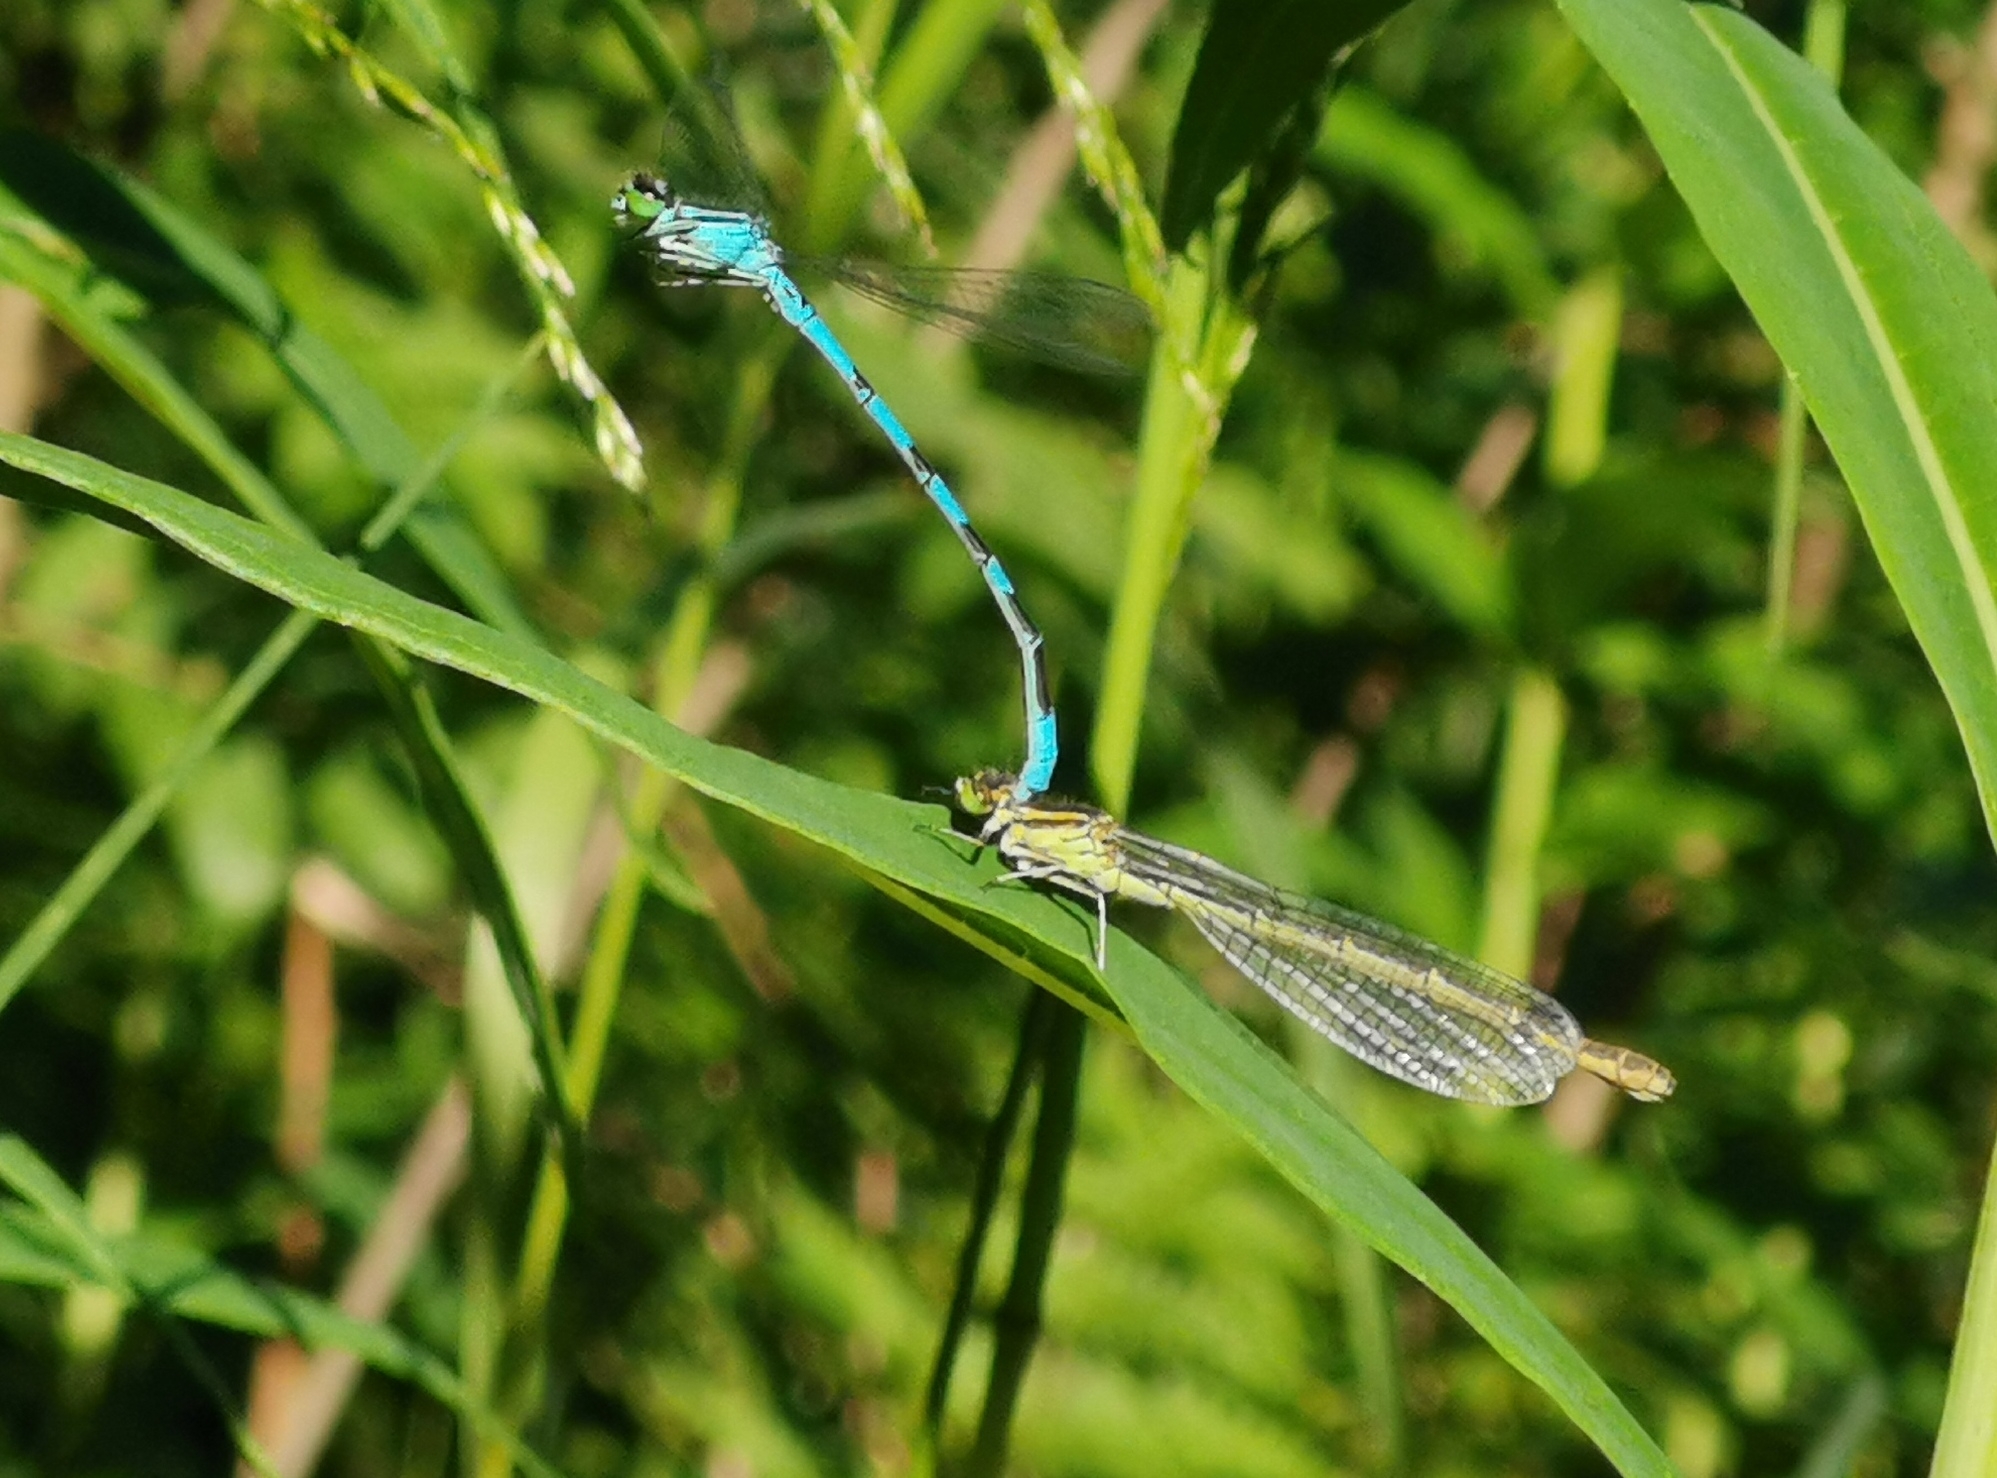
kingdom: Animalia
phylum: Arthropoda
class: Insecta
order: Odonata
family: Coenagrionidae
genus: Coenagrion
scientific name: Coenagrion hastulatum
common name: Spearhead bluet
